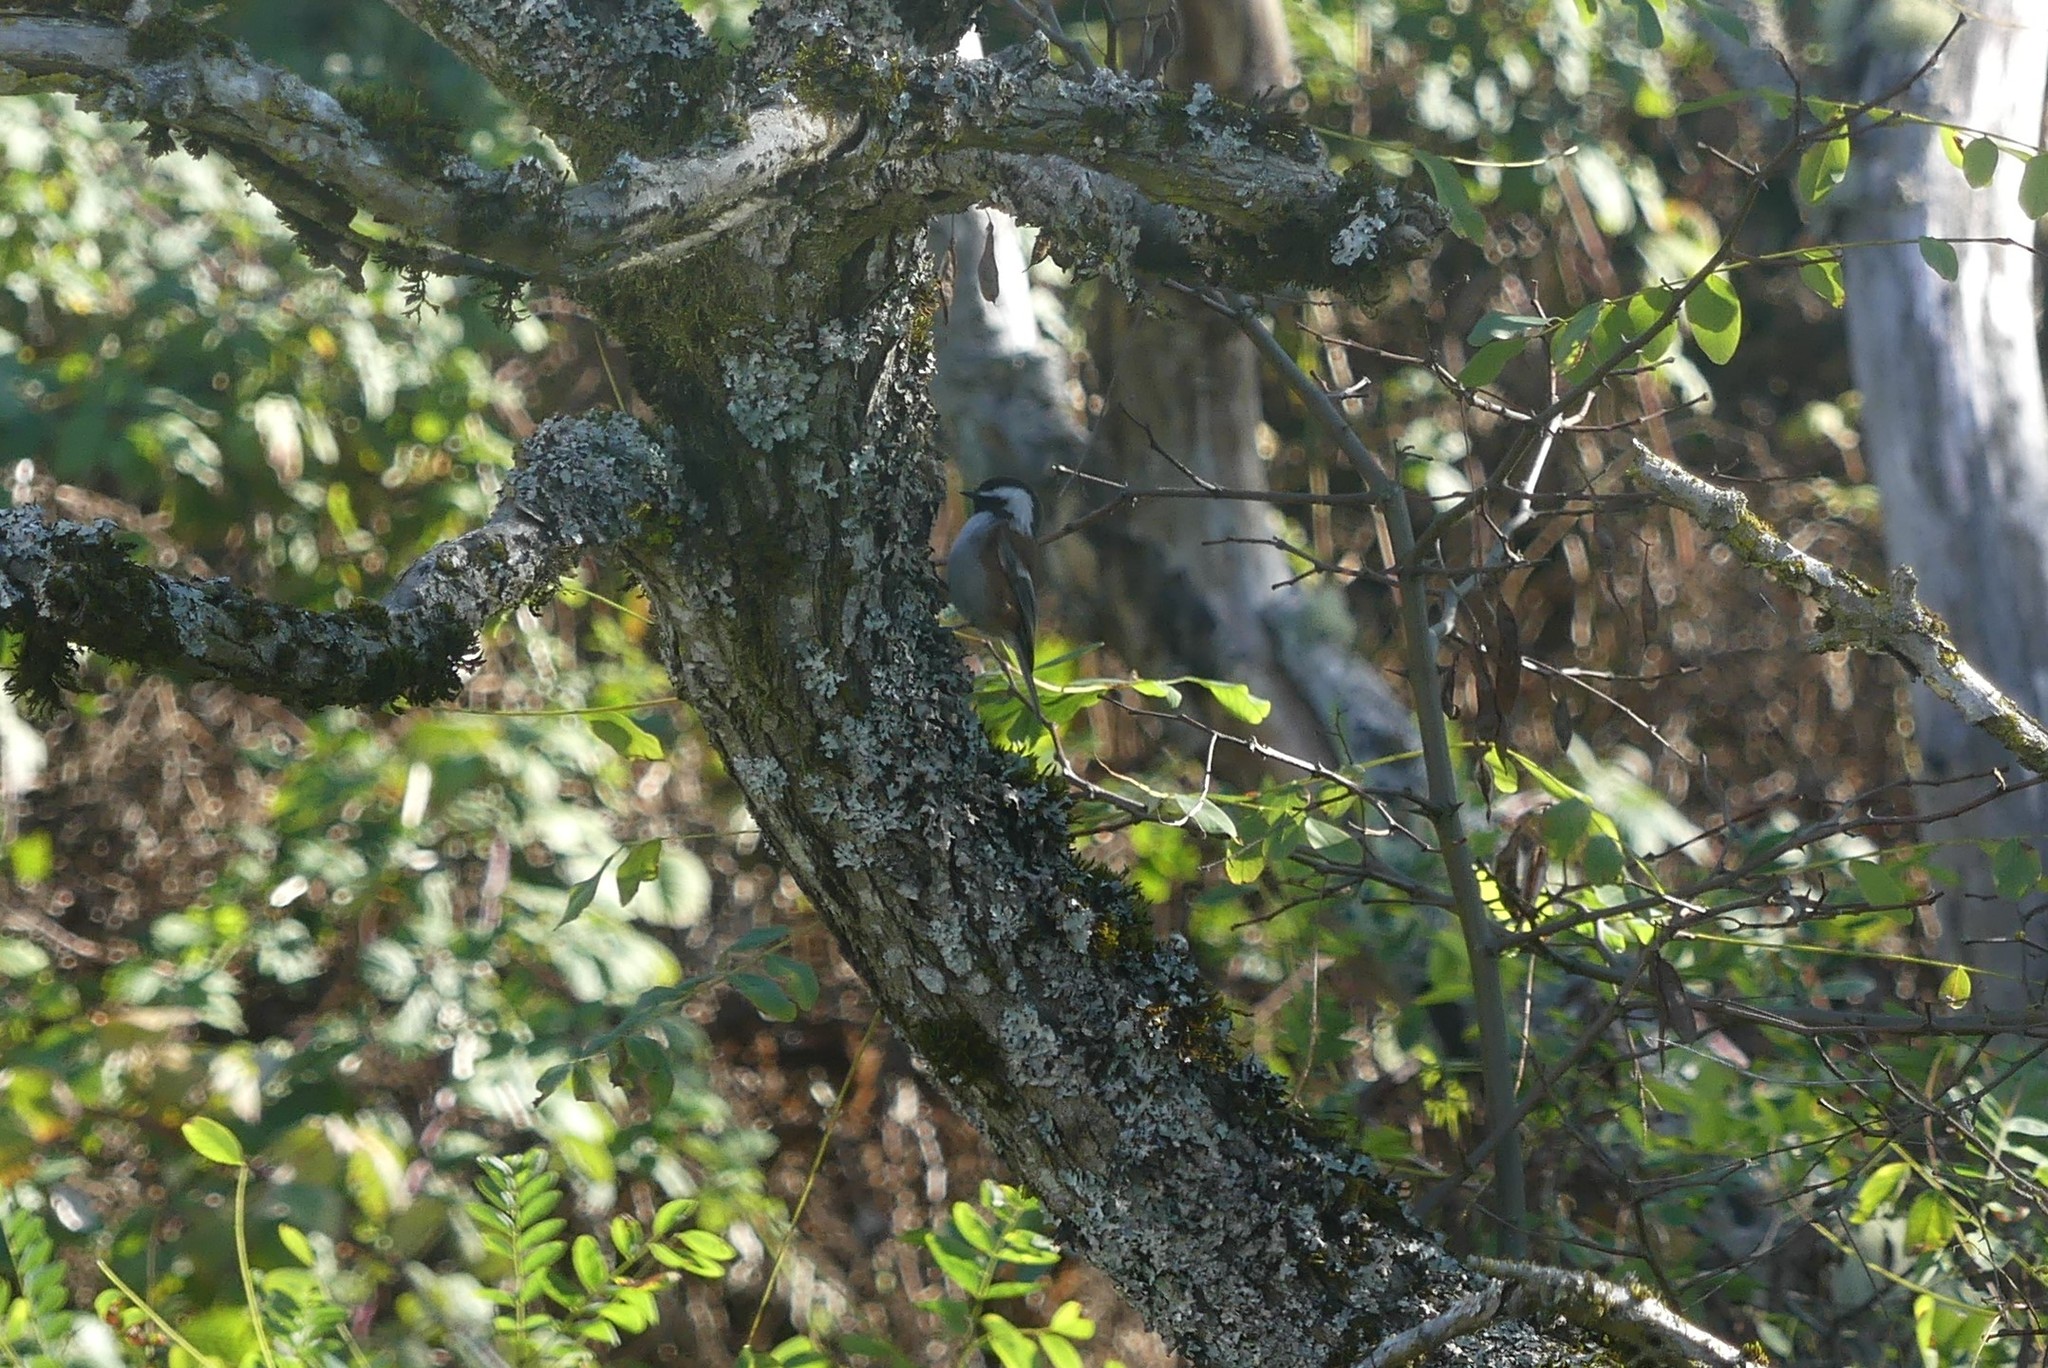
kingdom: Animalia
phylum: Chordata
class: Aves
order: Passeriformes
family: Paridae
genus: Poecile
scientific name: Poecile rufescens
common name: Chestnut-backed chickadee
